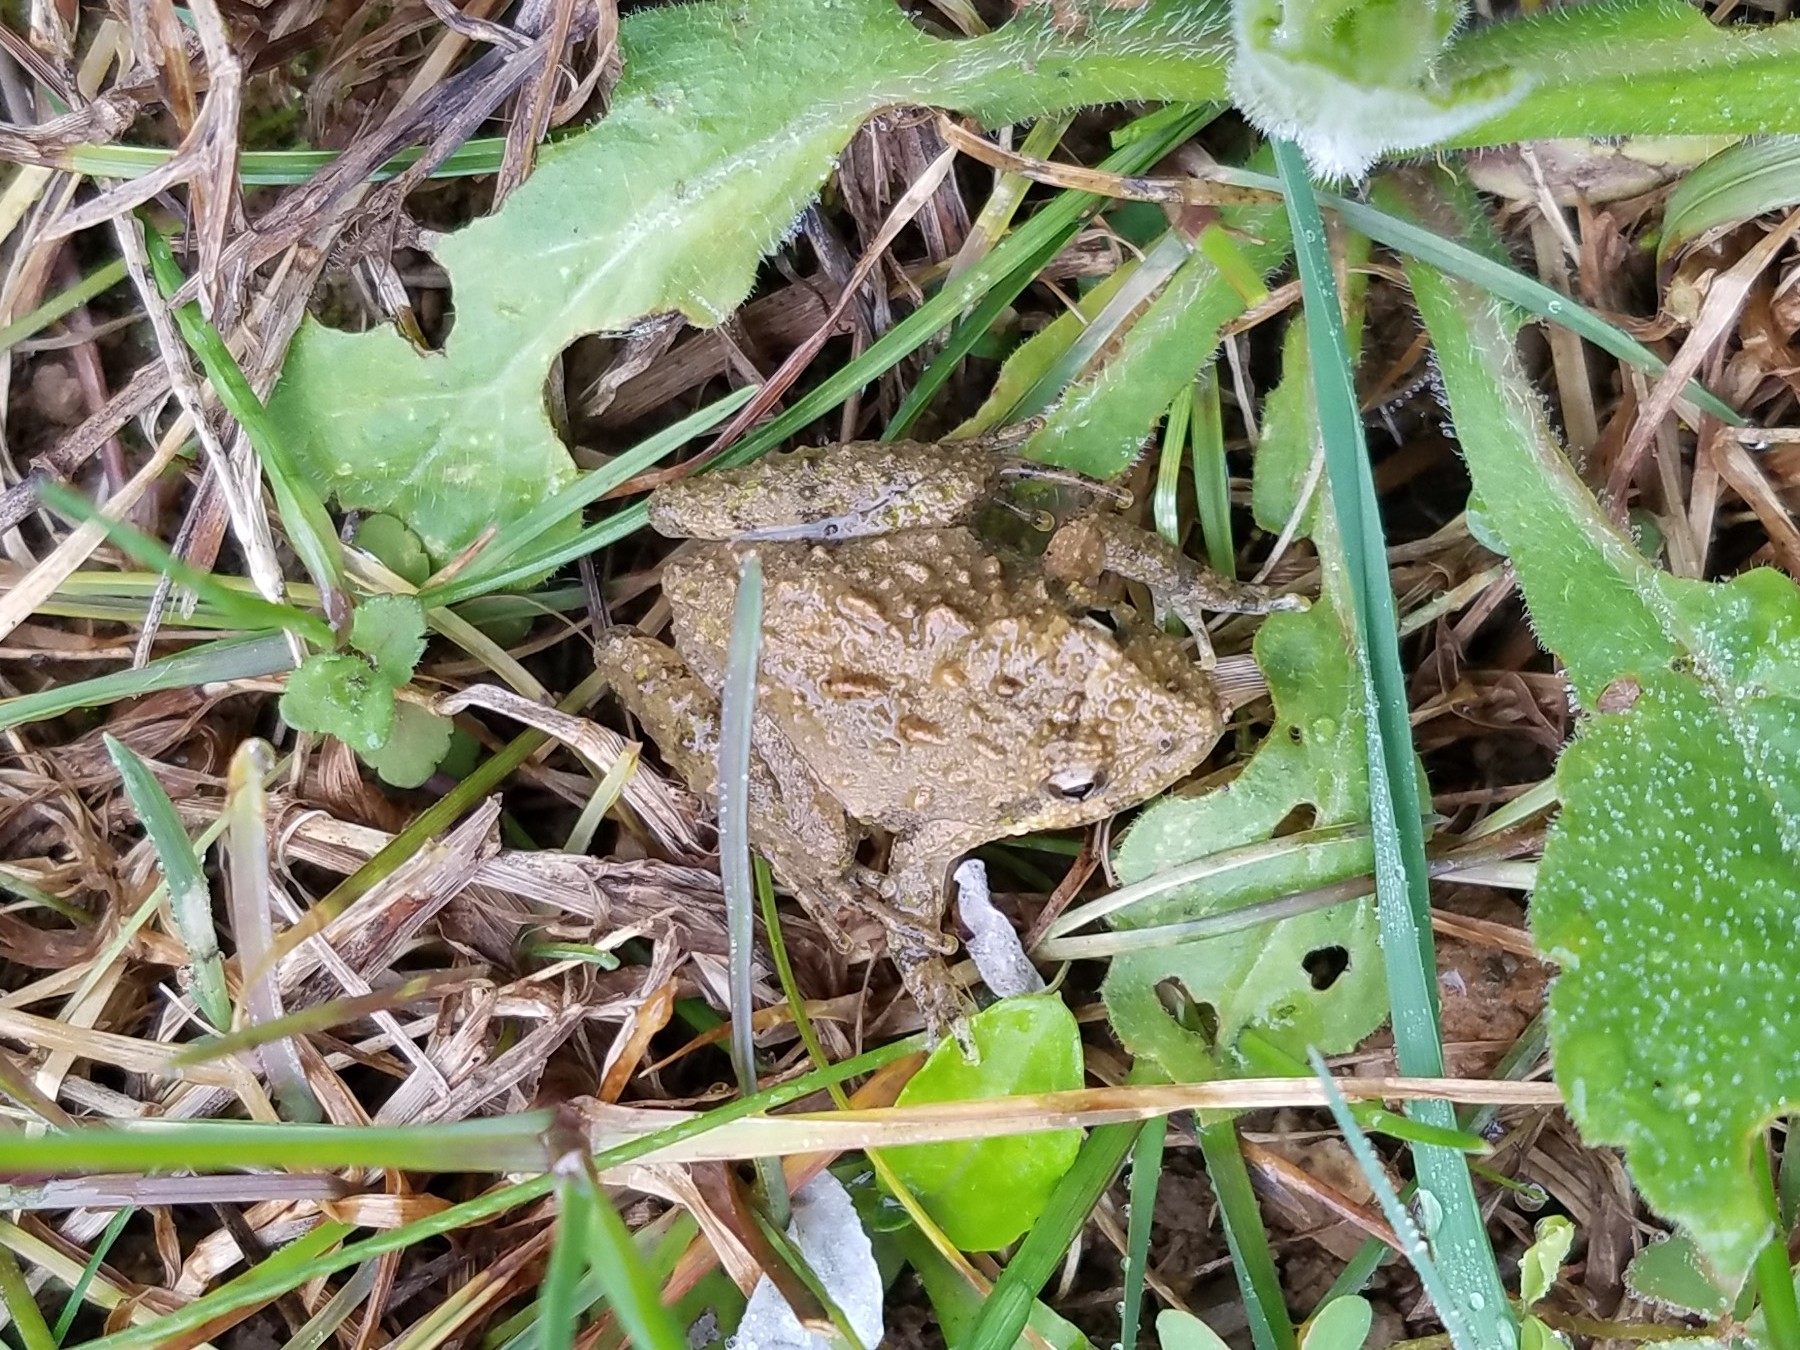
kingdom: Animalia
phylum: Chordata
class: Amphibia
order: Anura
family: Hylidae
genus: Acris
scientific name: Acris crepitans
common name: Northern cricket frog
